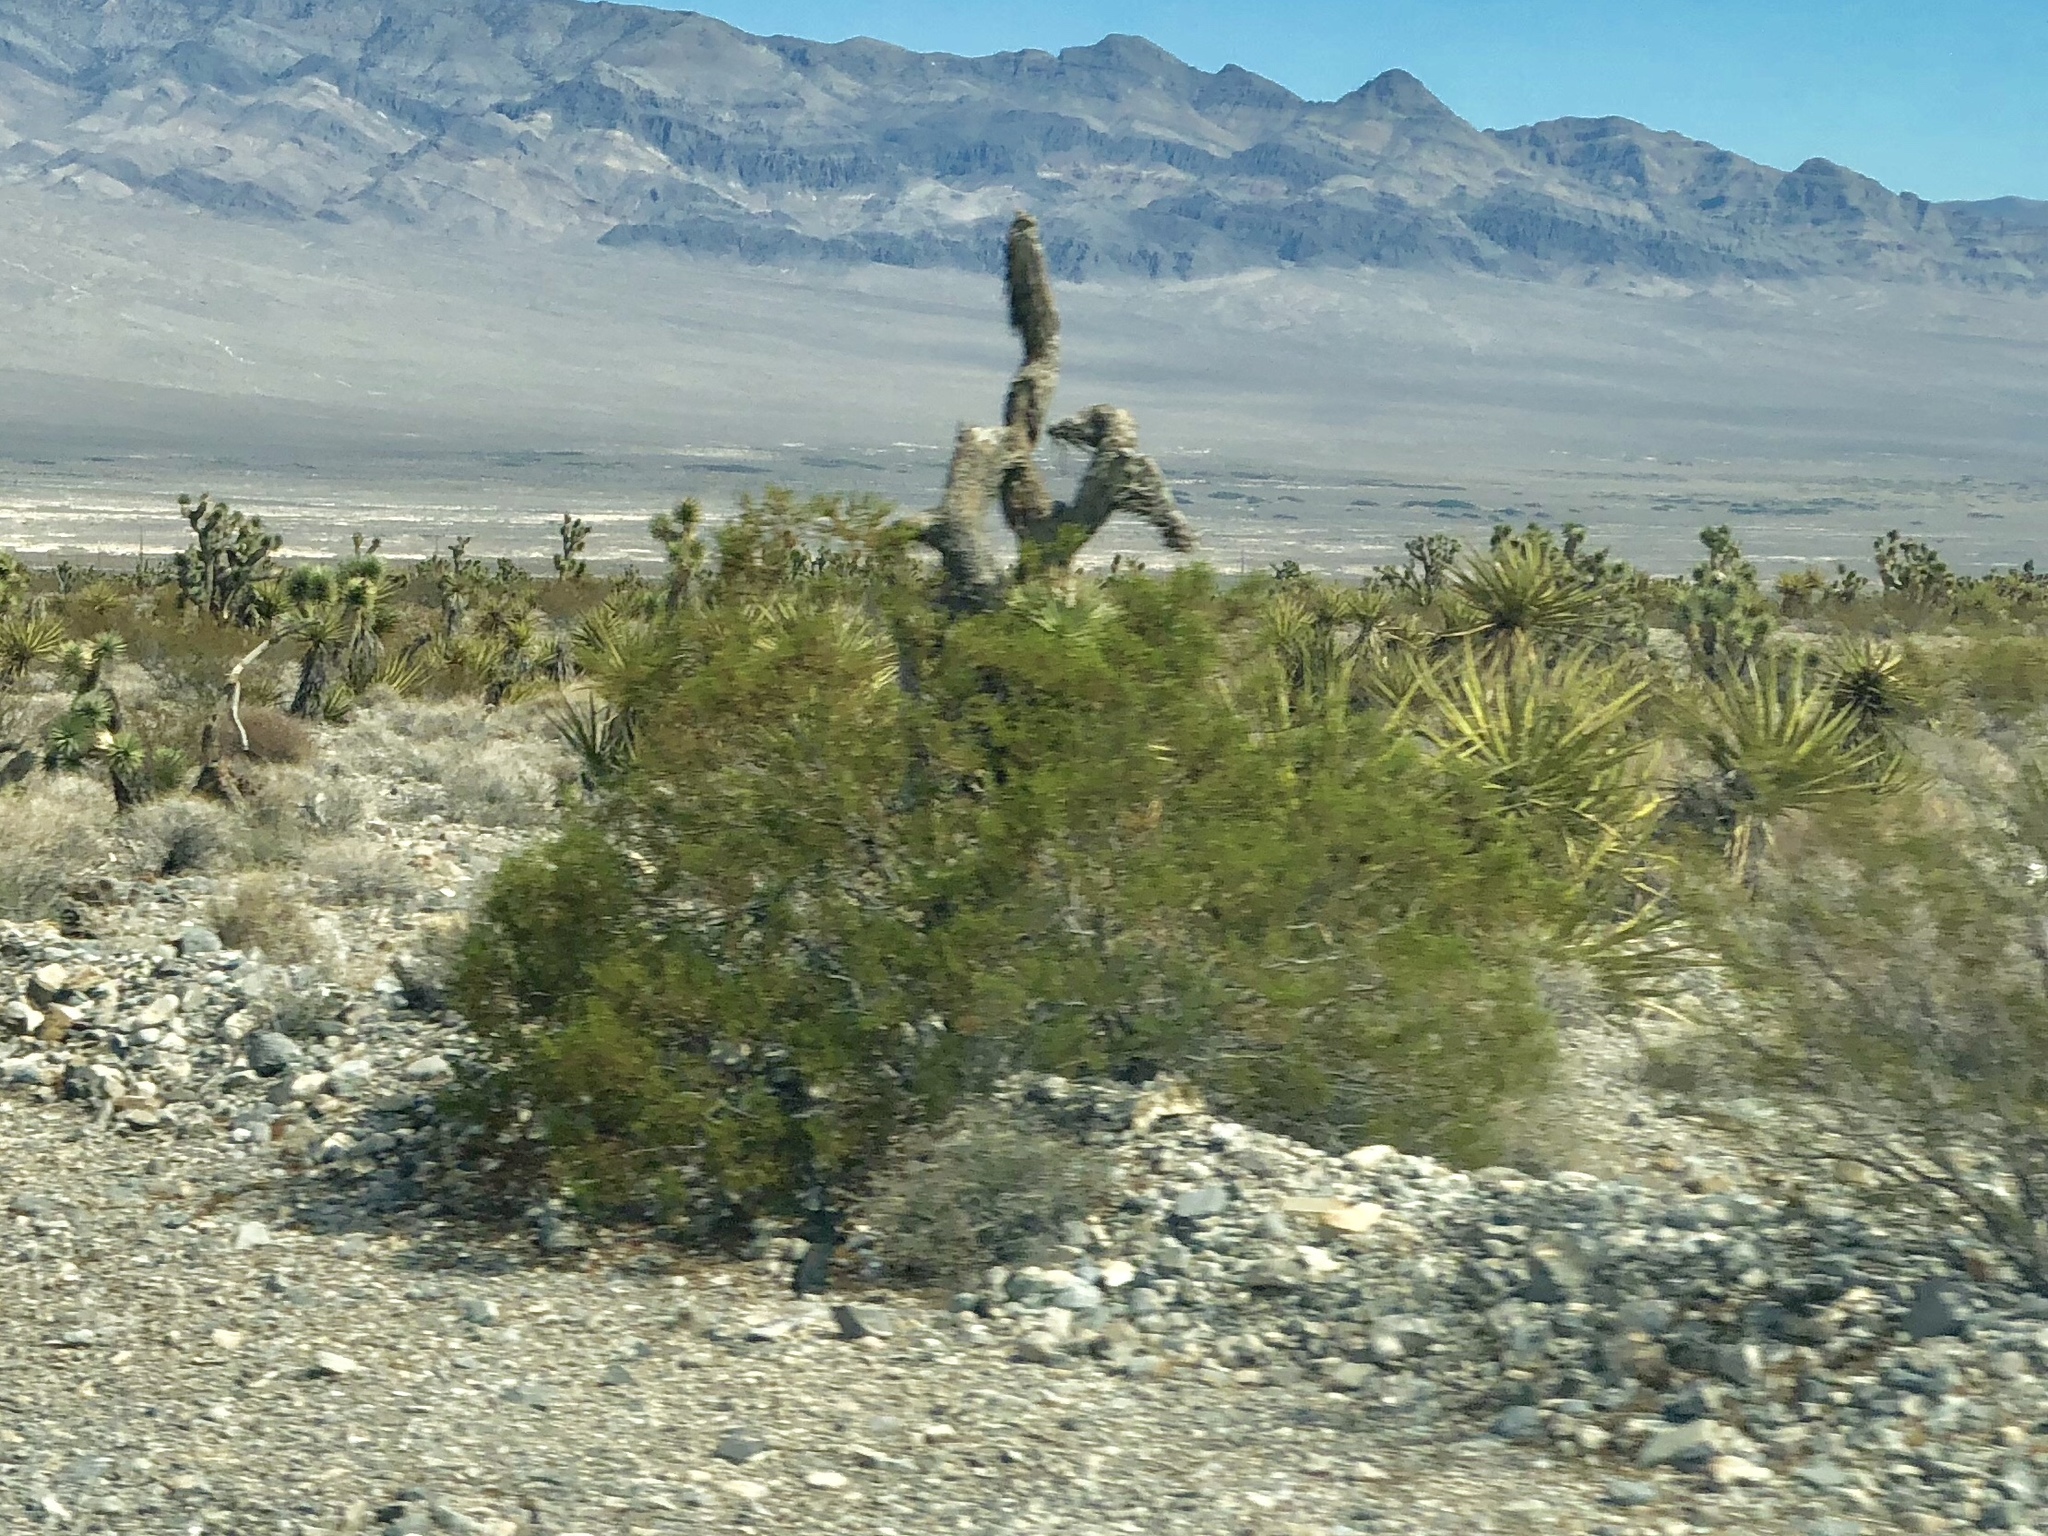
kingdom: Plantae
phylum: Tracheophyta
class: Magnoliopsida
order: Zygophyllales
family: Zygophyllaceae
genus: Larrea
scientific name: Larrea tridentata
